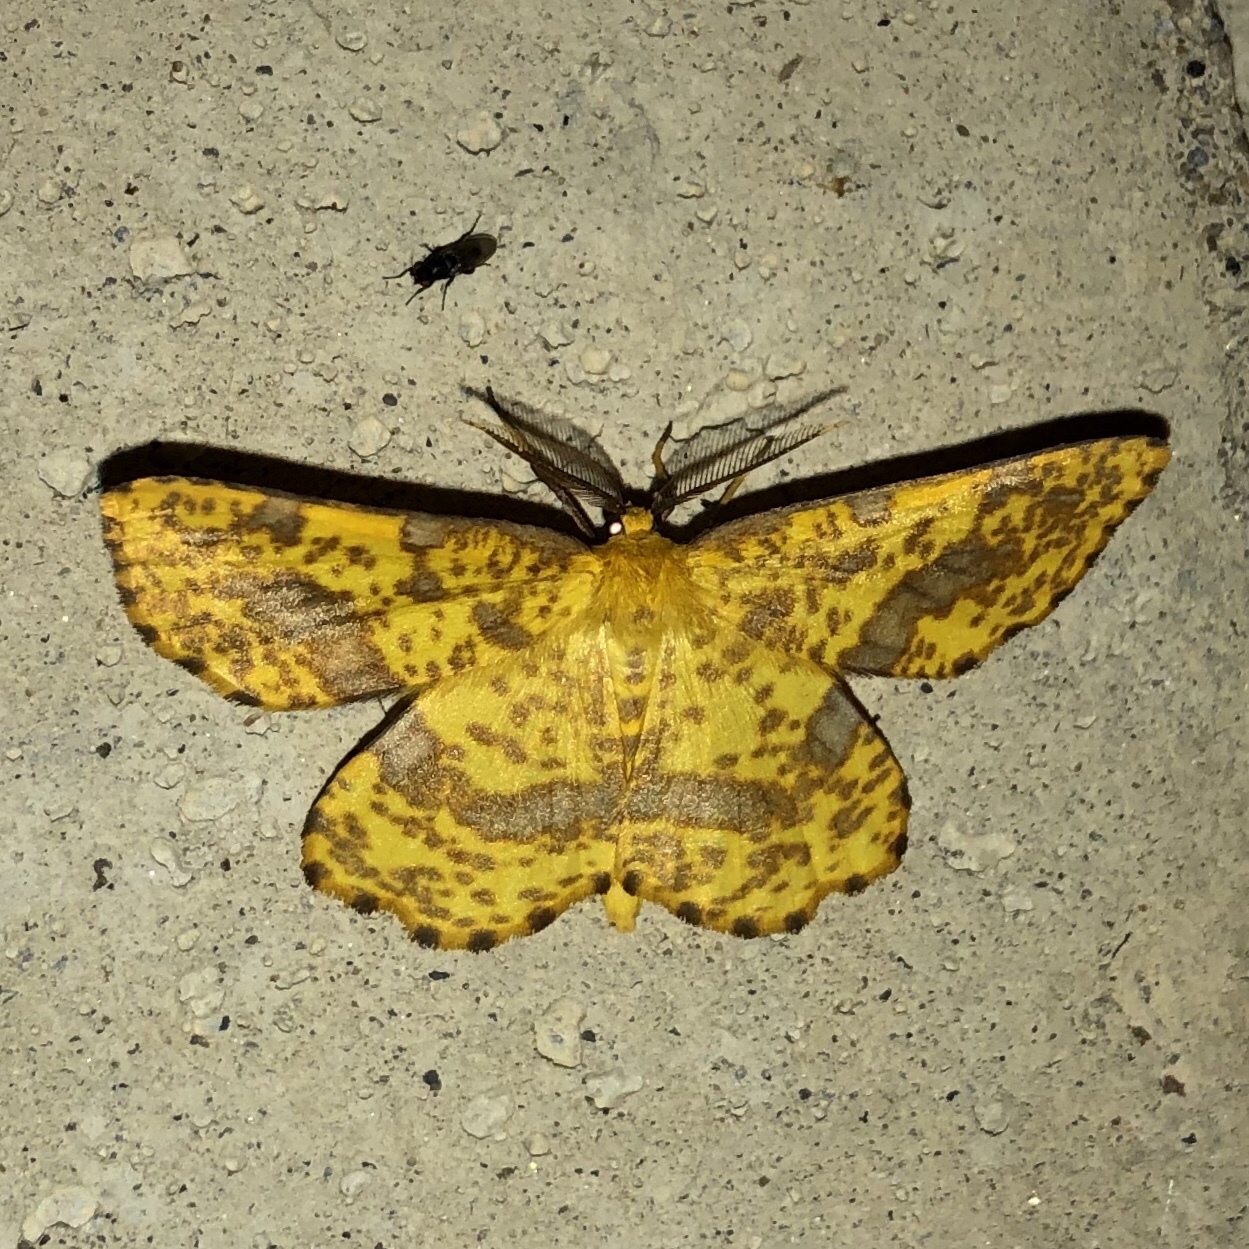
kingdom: Animalia
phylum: Arthropoda
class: Insecta
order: Lepidoptera
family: Geometridae
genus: Xanthotype
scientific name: Xanthotype
